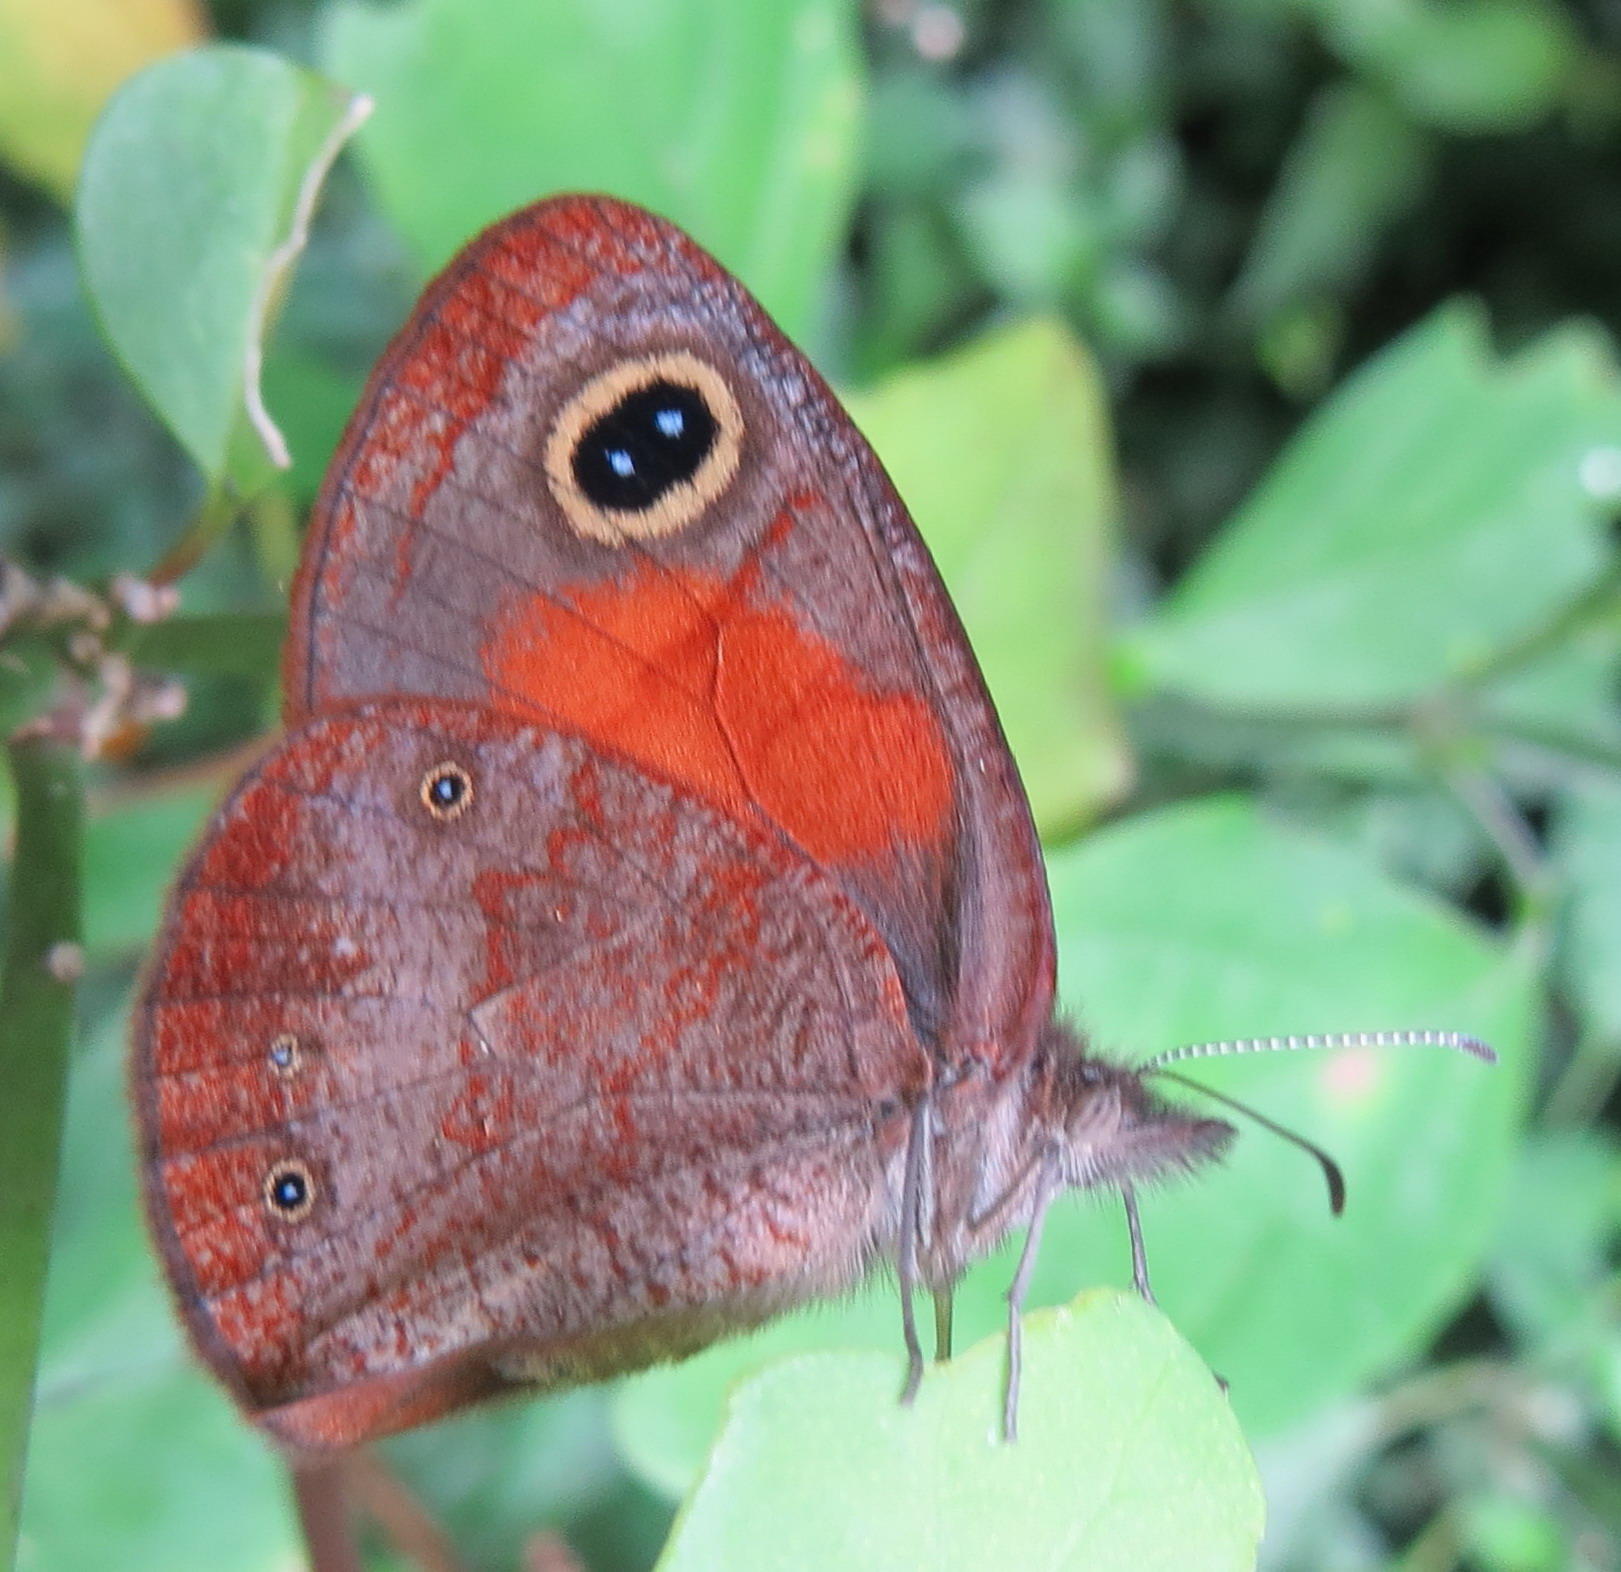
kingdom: Animalia
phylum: Arthropoda
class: Insecta
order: Lepidoptera
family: Nymphalidae
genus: Cassionympha
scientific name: Cassionympha cassius
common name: Rainforest brown
